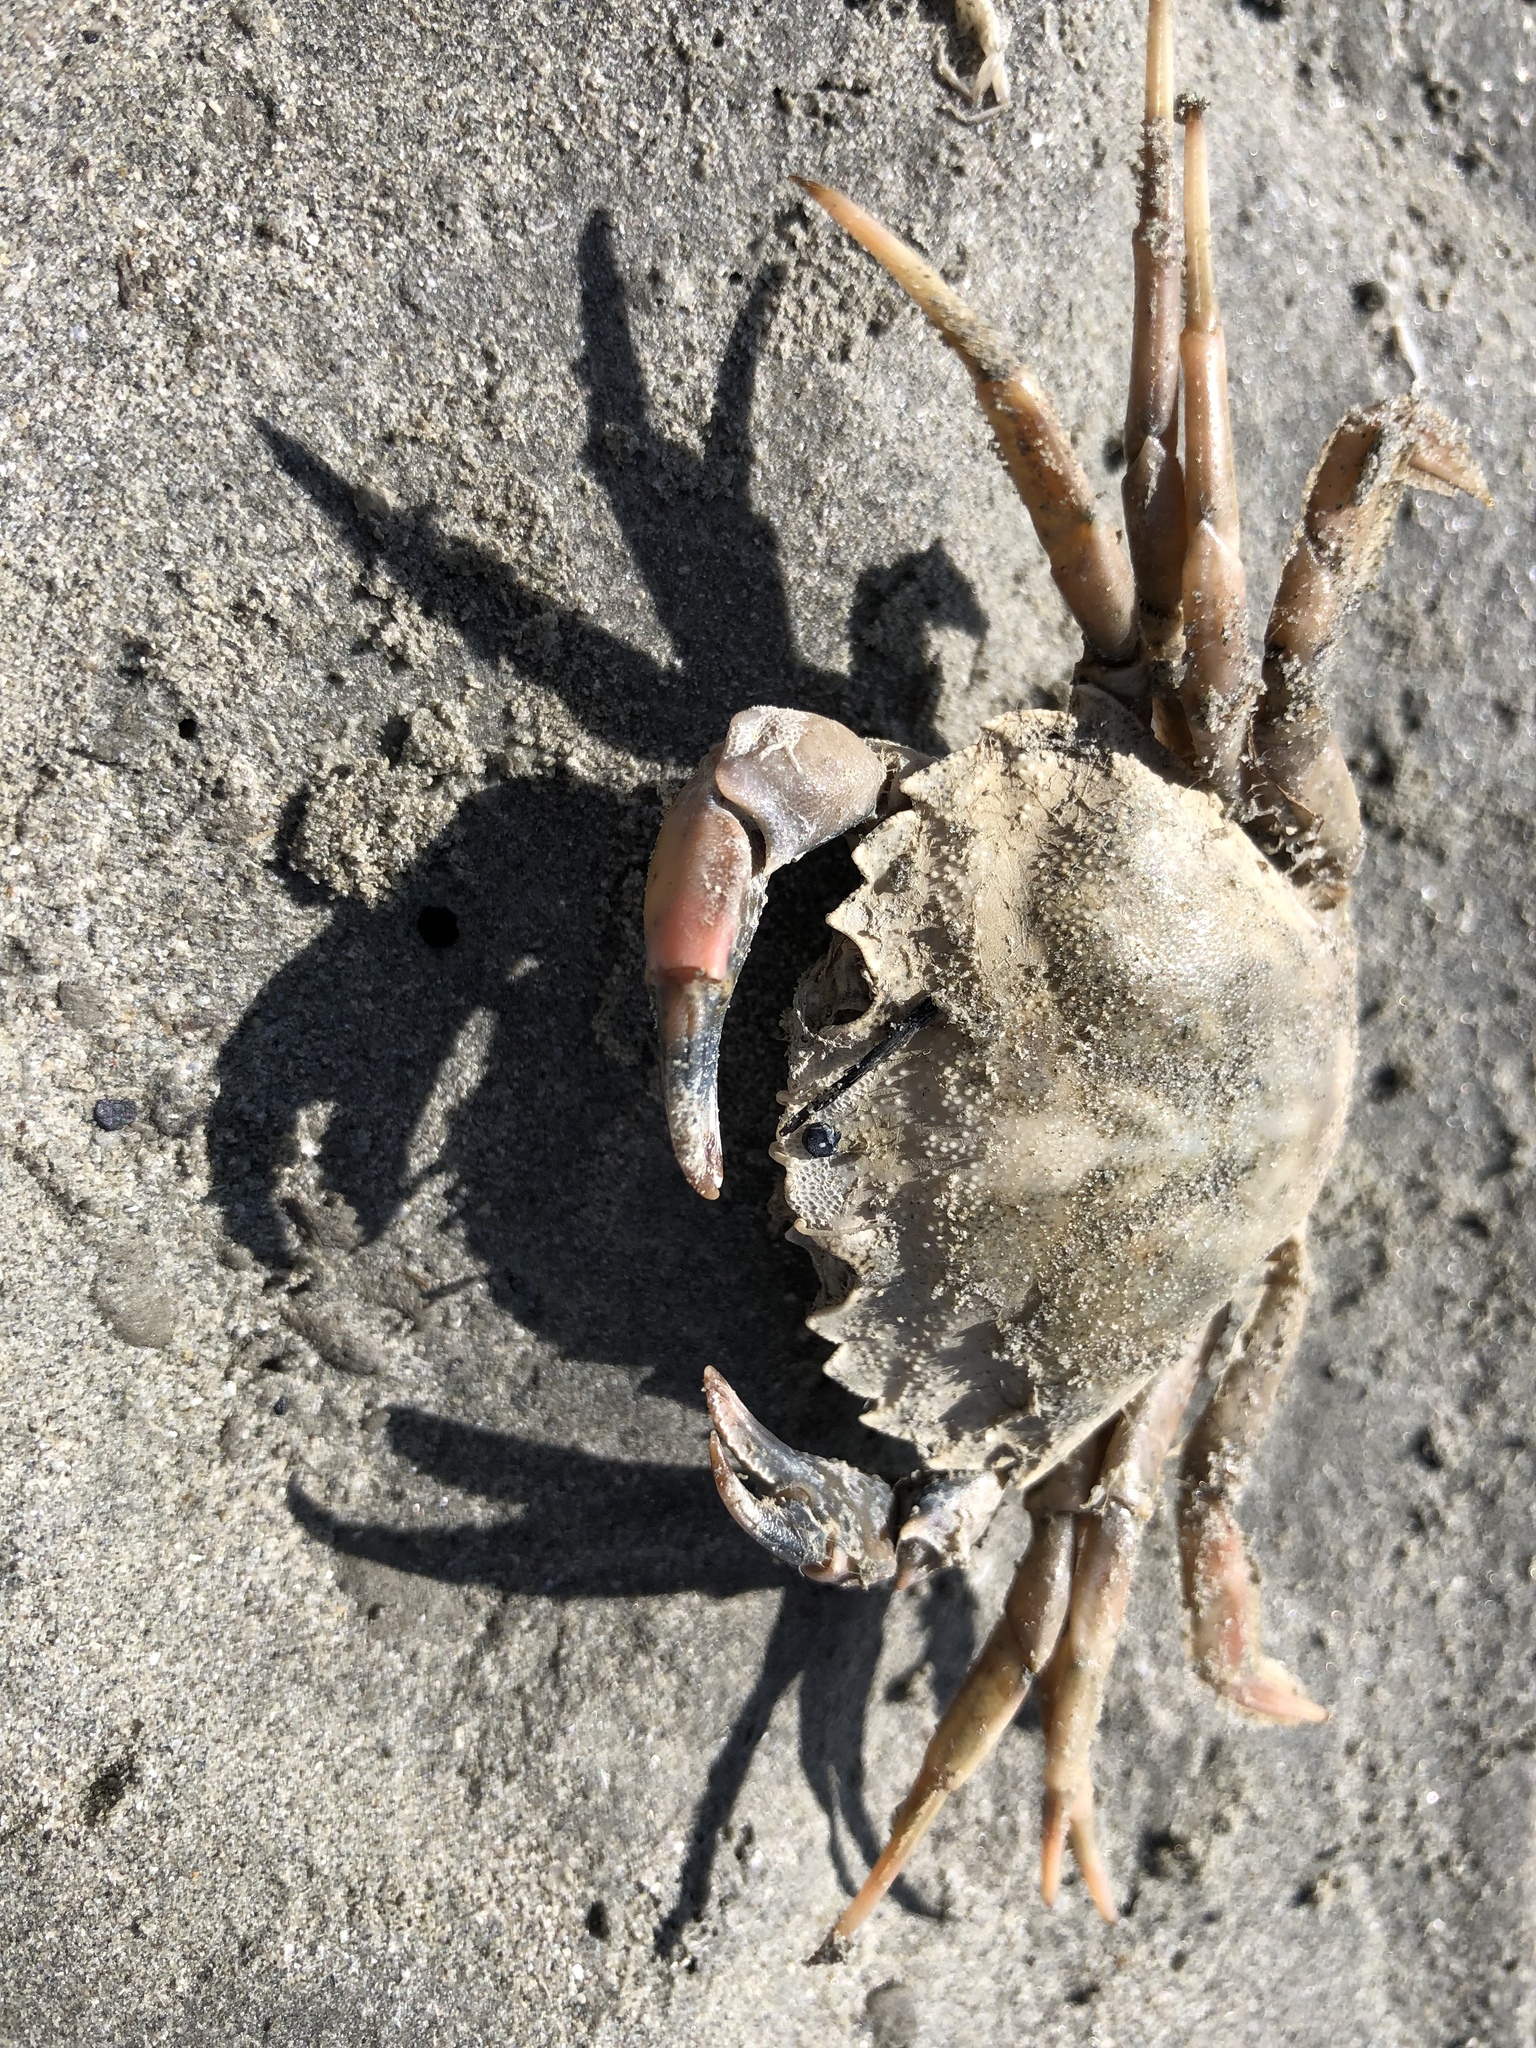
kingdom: Animalia
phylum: Arthropoda
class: Malacostraca
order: Decapoda
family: Carcinidae
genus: Carcinus
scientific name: Carcinus maenas
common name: European green crab
